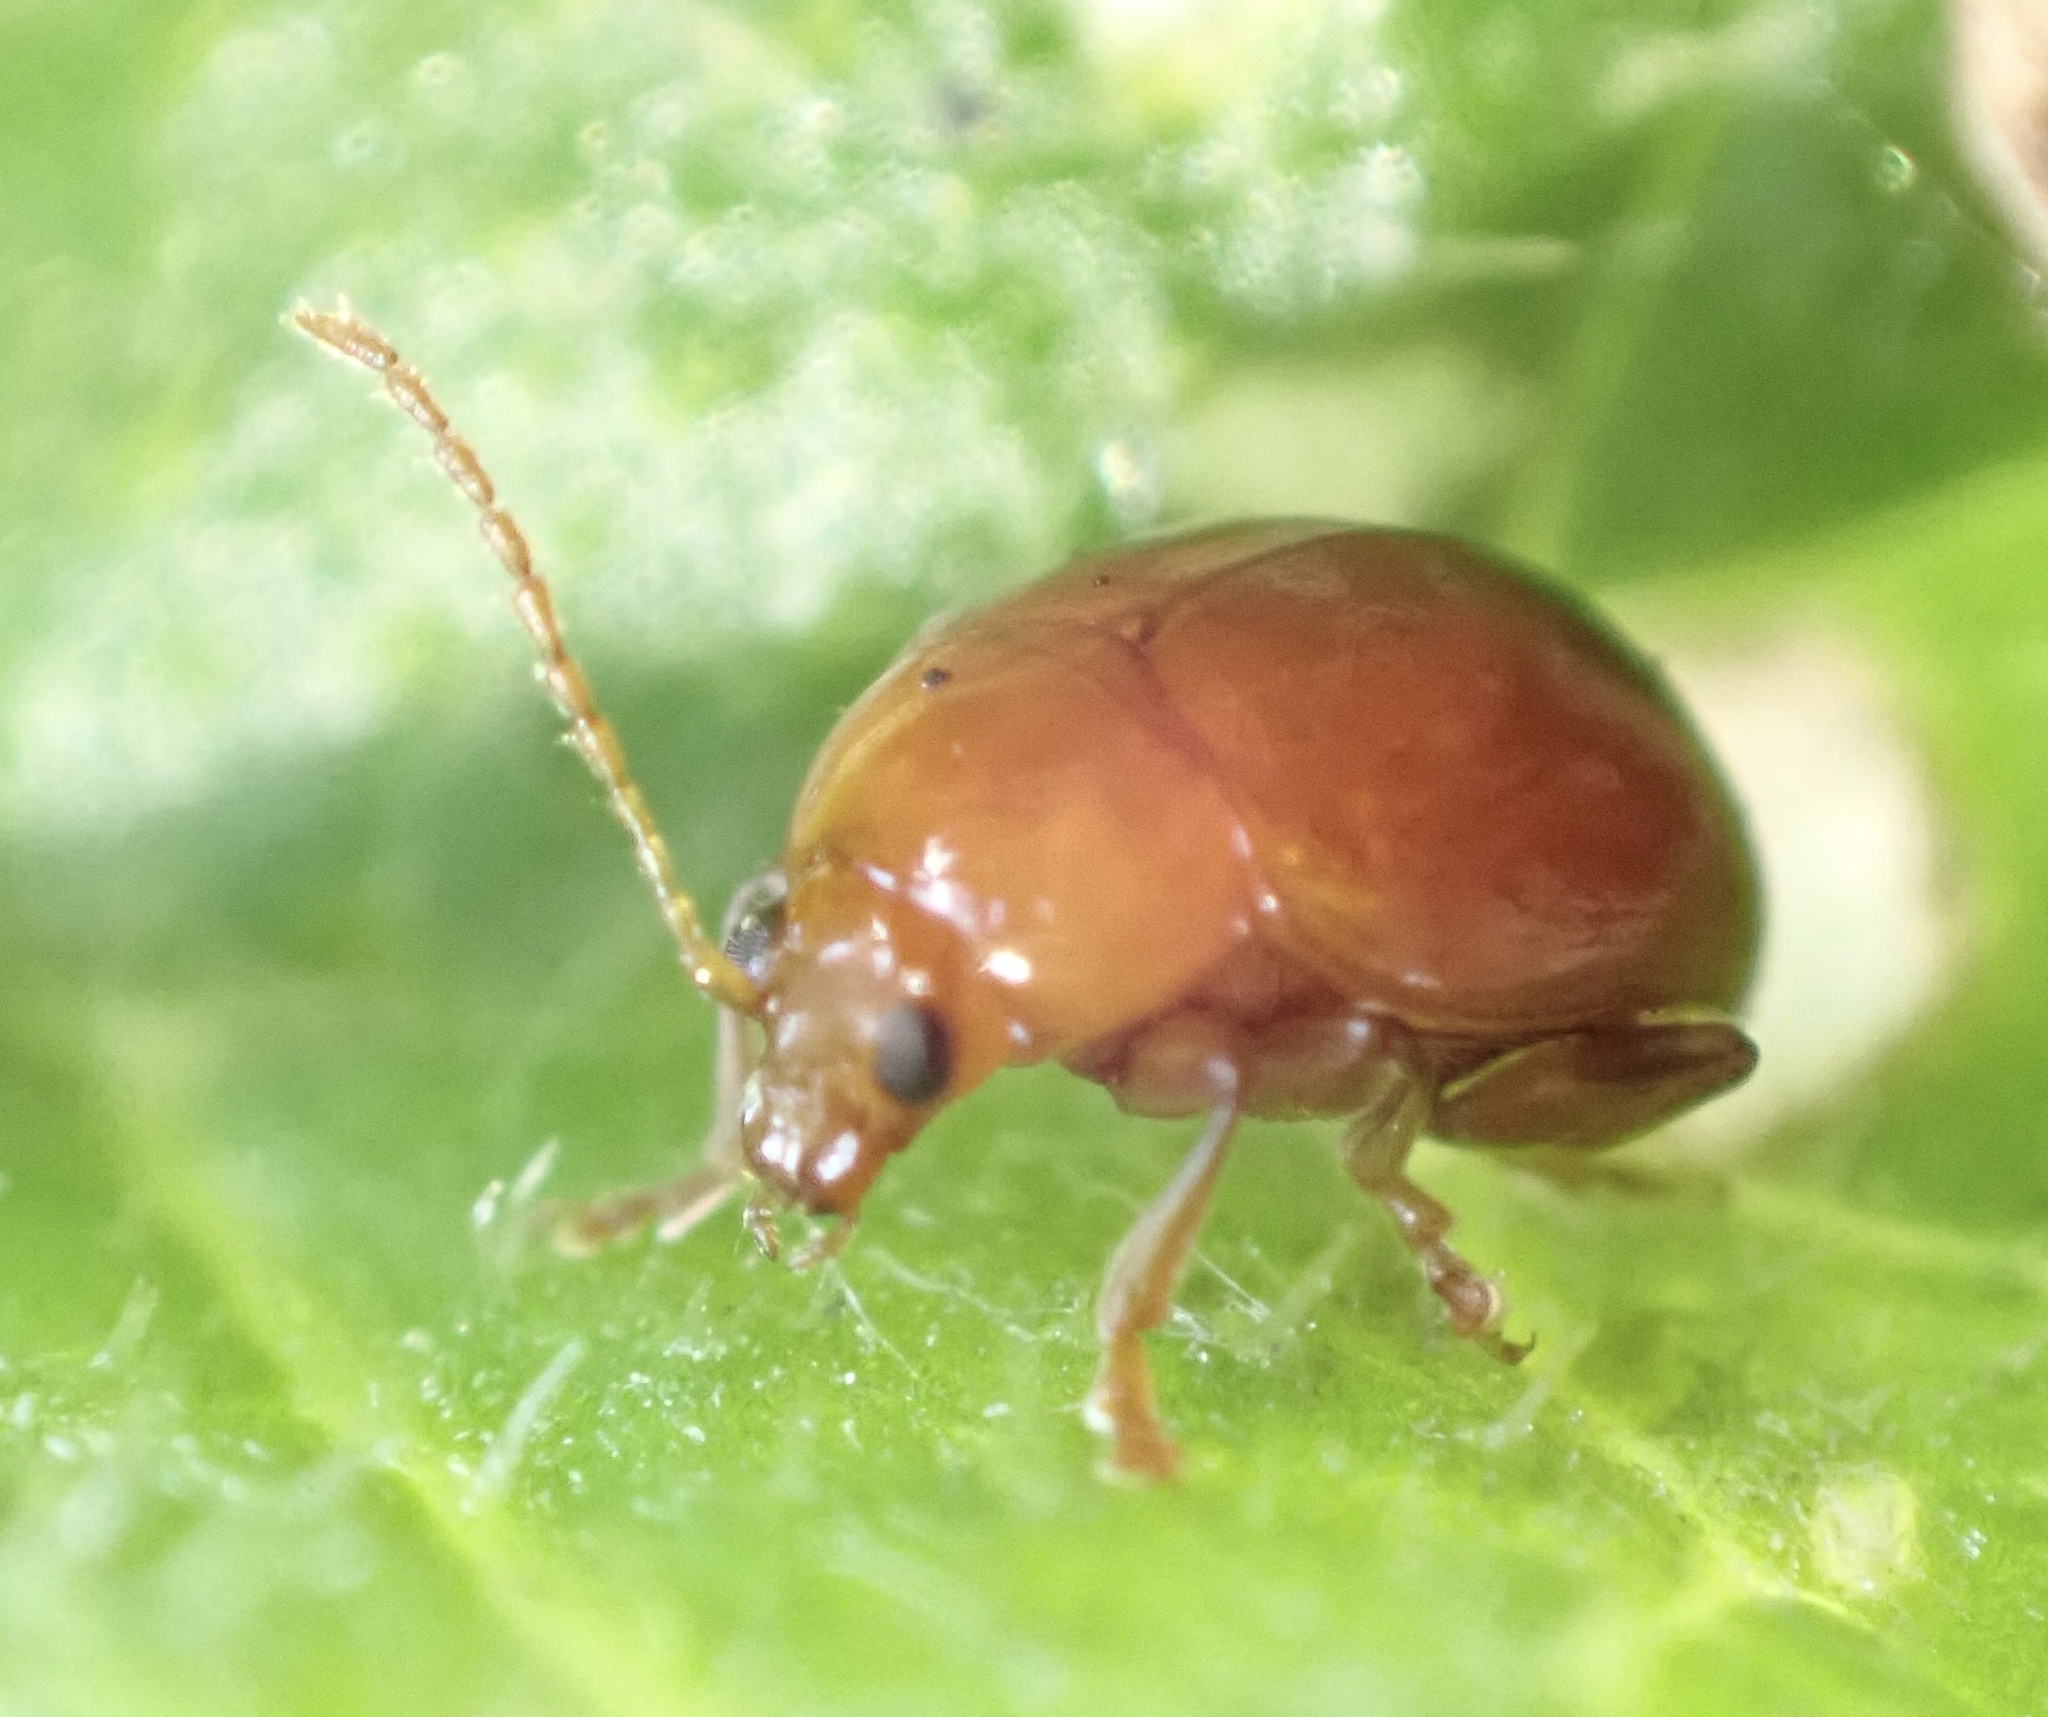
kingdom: Animalia
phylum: Arthropoda
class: Insecta
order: Coleoptera
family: Chrysomelidae
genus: Pistosia
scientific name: Pistosia testacea
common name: Leaf beetle
